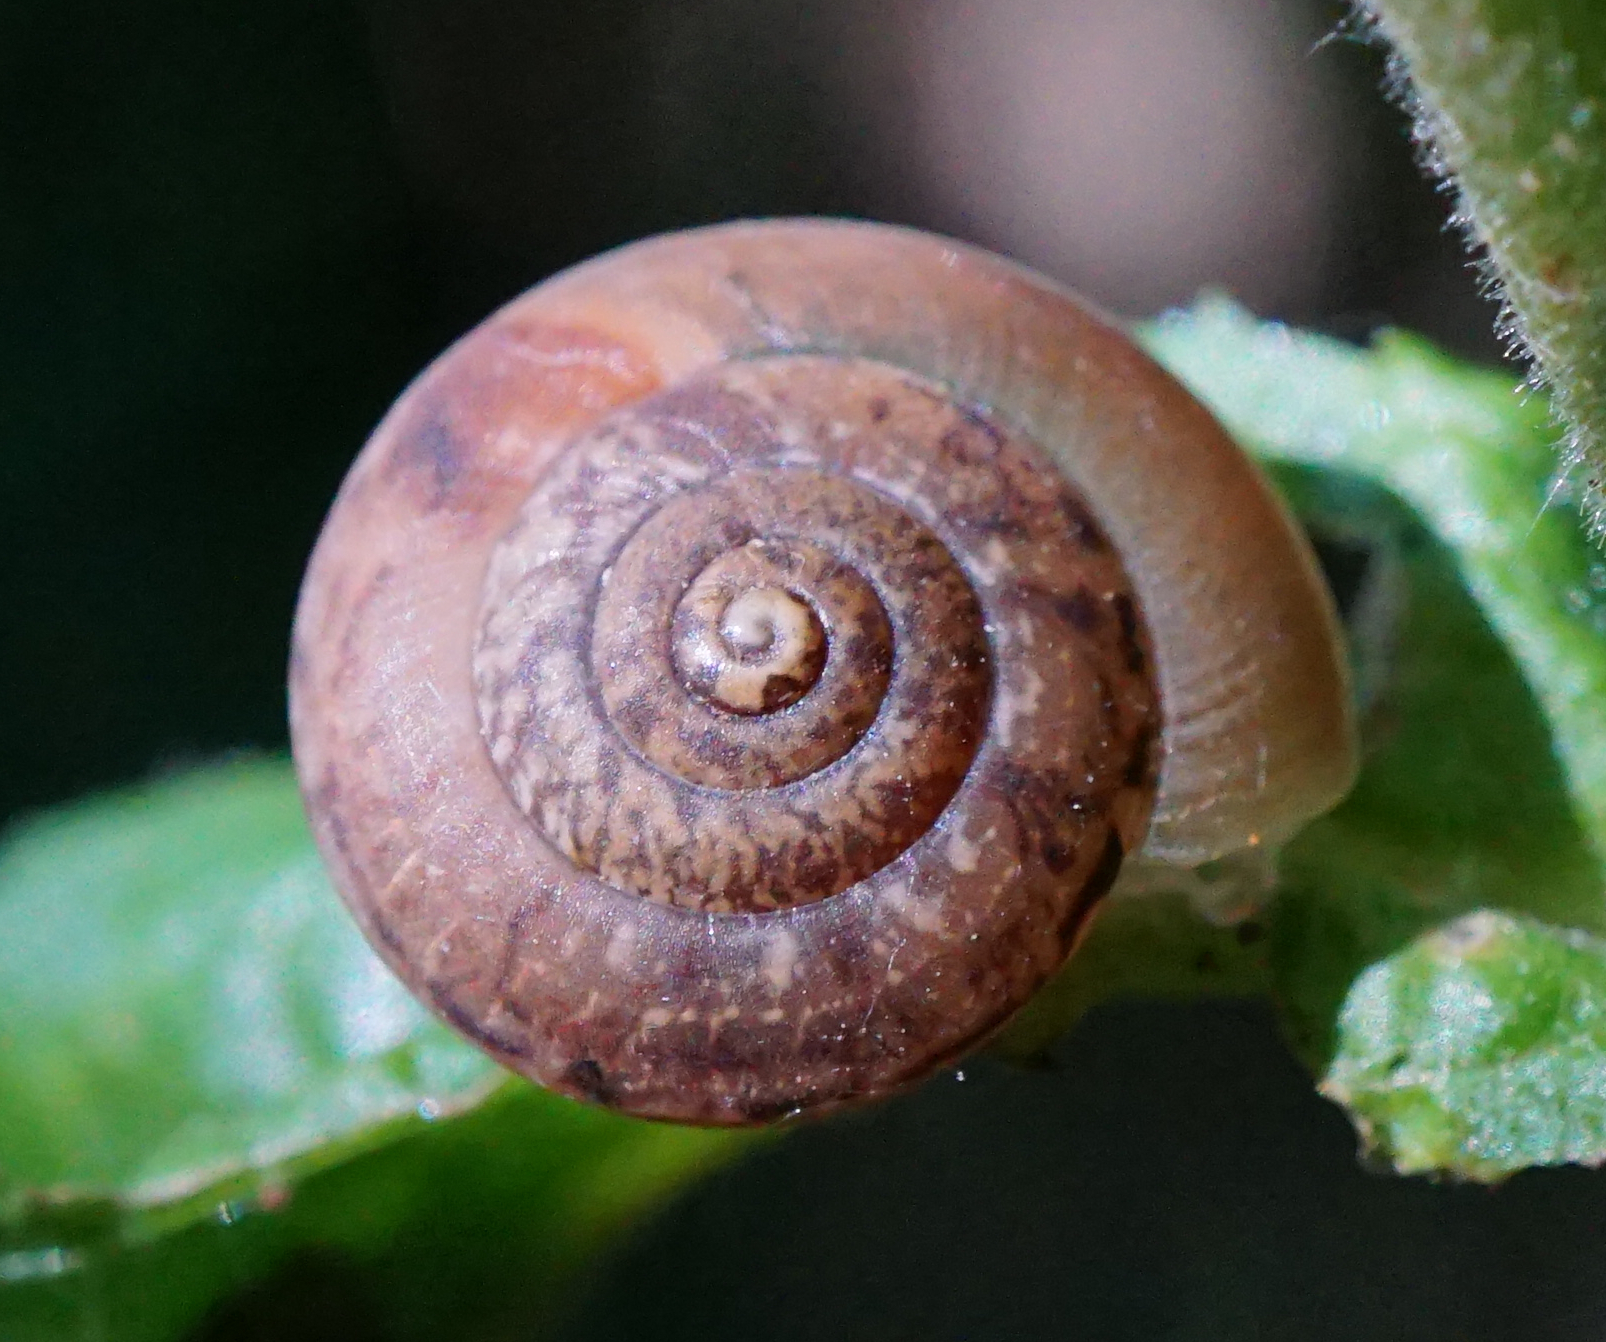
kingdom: Animalia
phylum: Mollusca
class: Gastropoda
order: Stylommatophora
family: Hygromiidae
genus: Monachoides
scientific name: Monachoides incarnatus
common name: Incarnate snail
